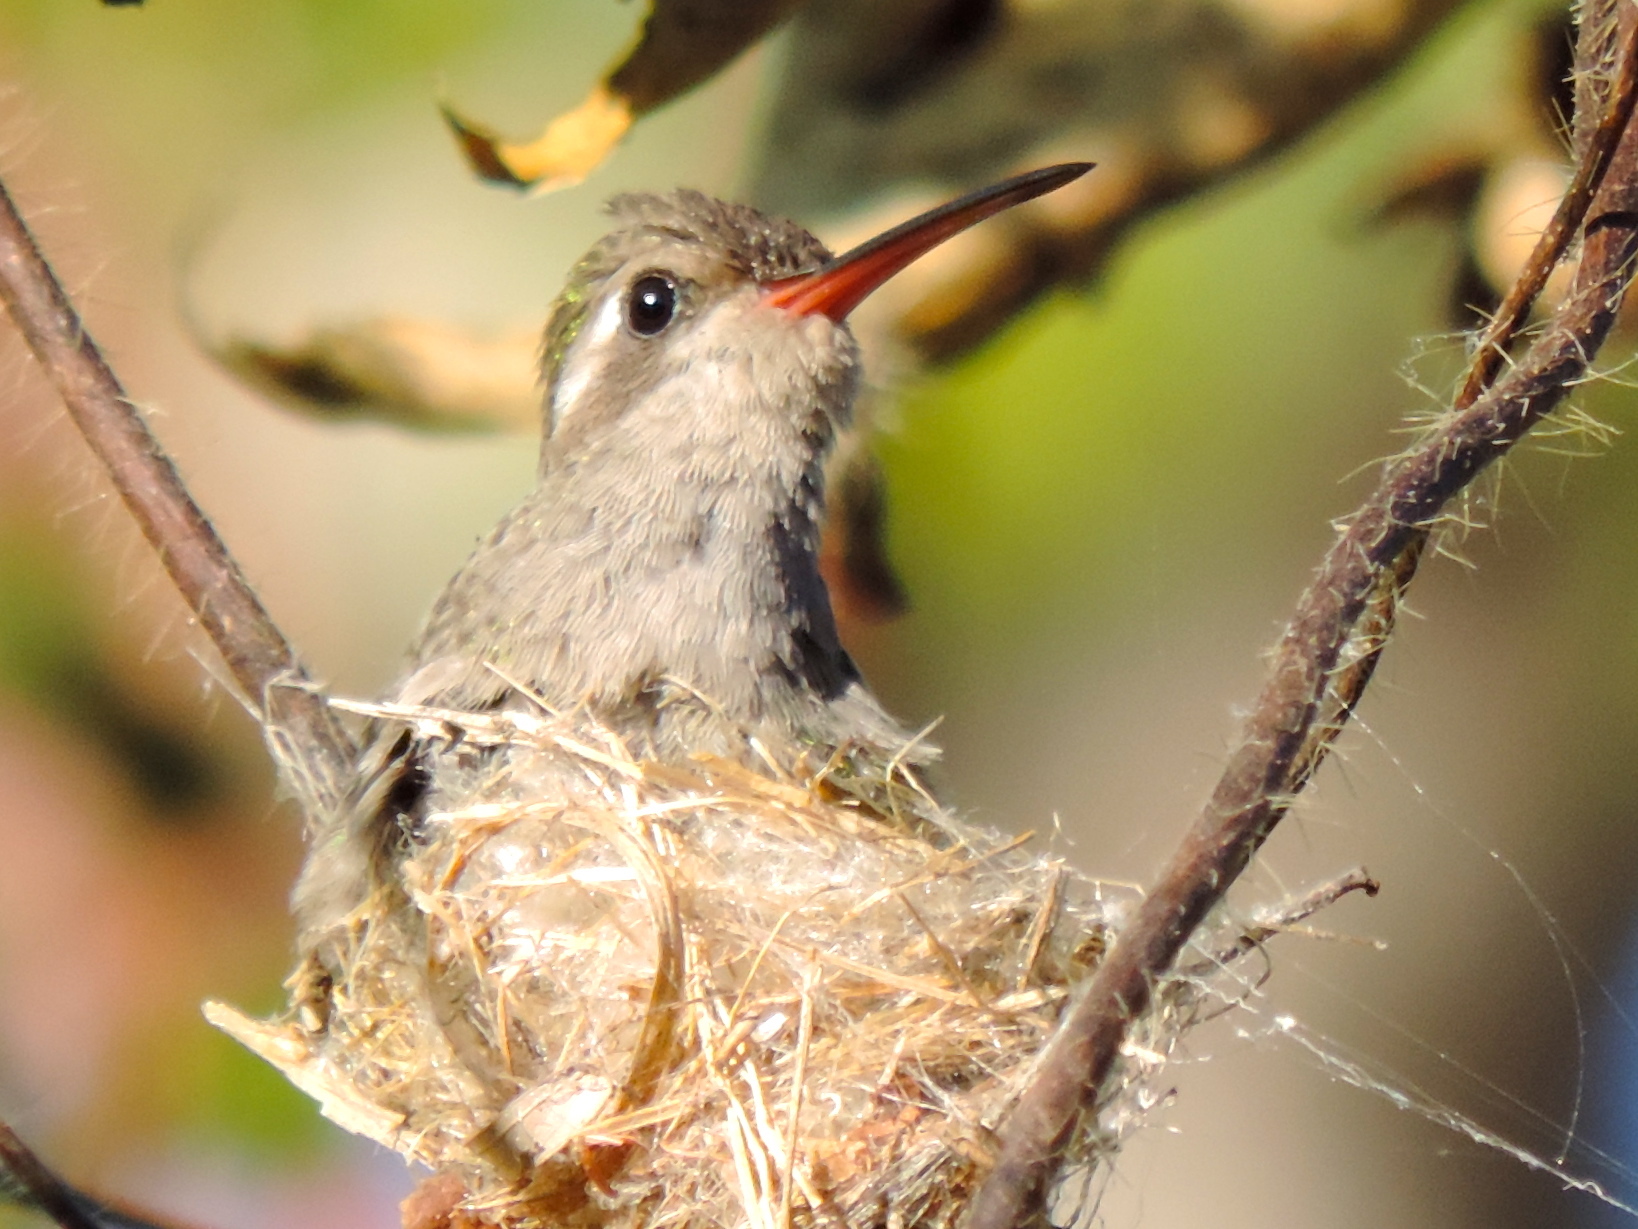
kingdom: Animalia
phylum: Chordata
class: Aves
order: Apodiformes
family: Trochilidae
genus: Cynanthus
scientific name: Cynanthus latirostris
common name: Broad-billed hummingbird
